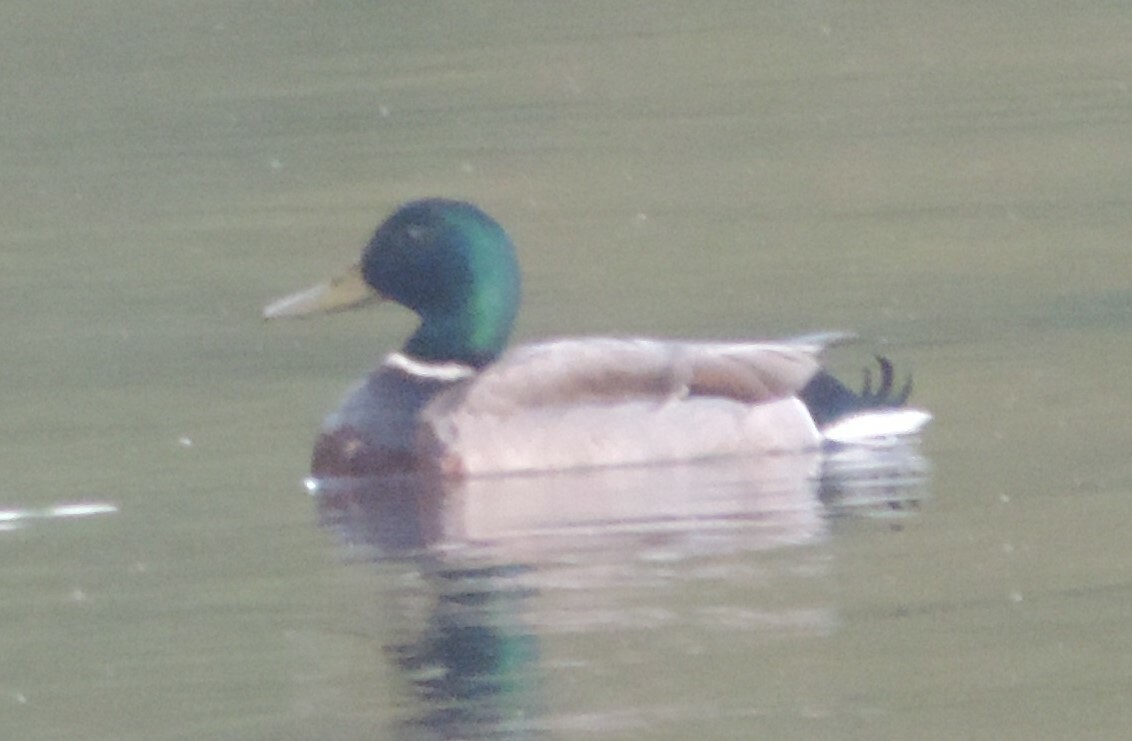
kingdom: Animalia
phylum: Chordata
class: Aves
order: Anseriformes
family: Anatidae
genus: Anas
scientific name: Anas platyrhynchos
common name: Mallard
